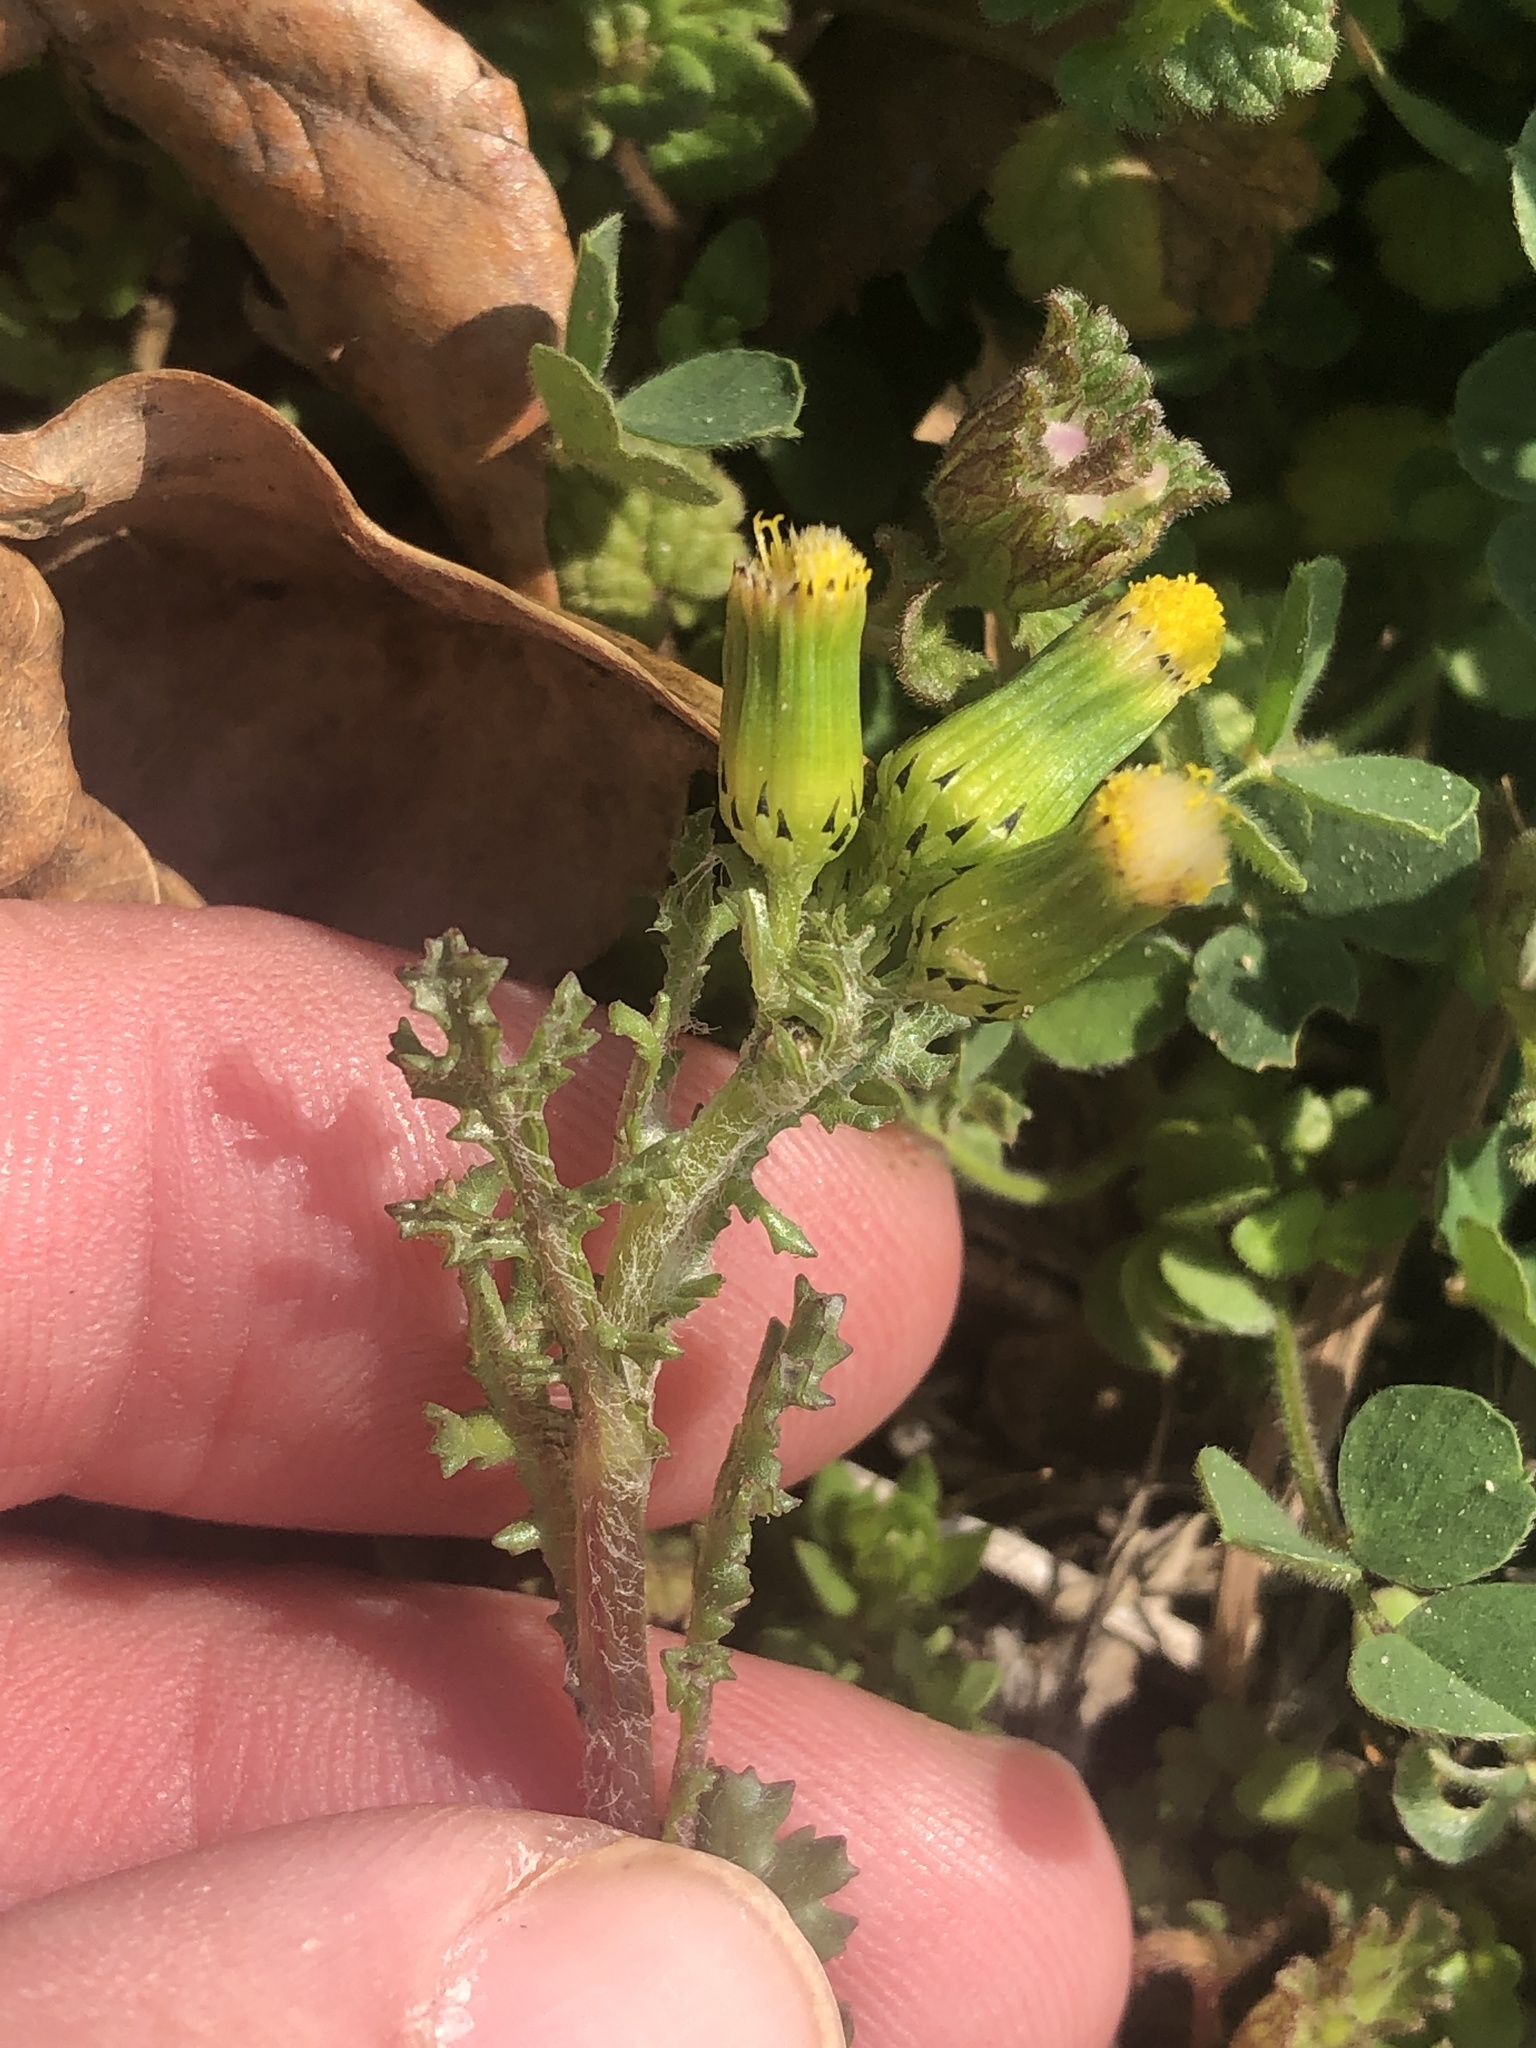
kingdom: Plantae
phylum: Tracheophyta
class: Magnoliopsida
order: Asterales
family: Asteraceae
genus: Senecio
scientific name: Senecio vulgaris
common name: Old-man-in-the-spring
